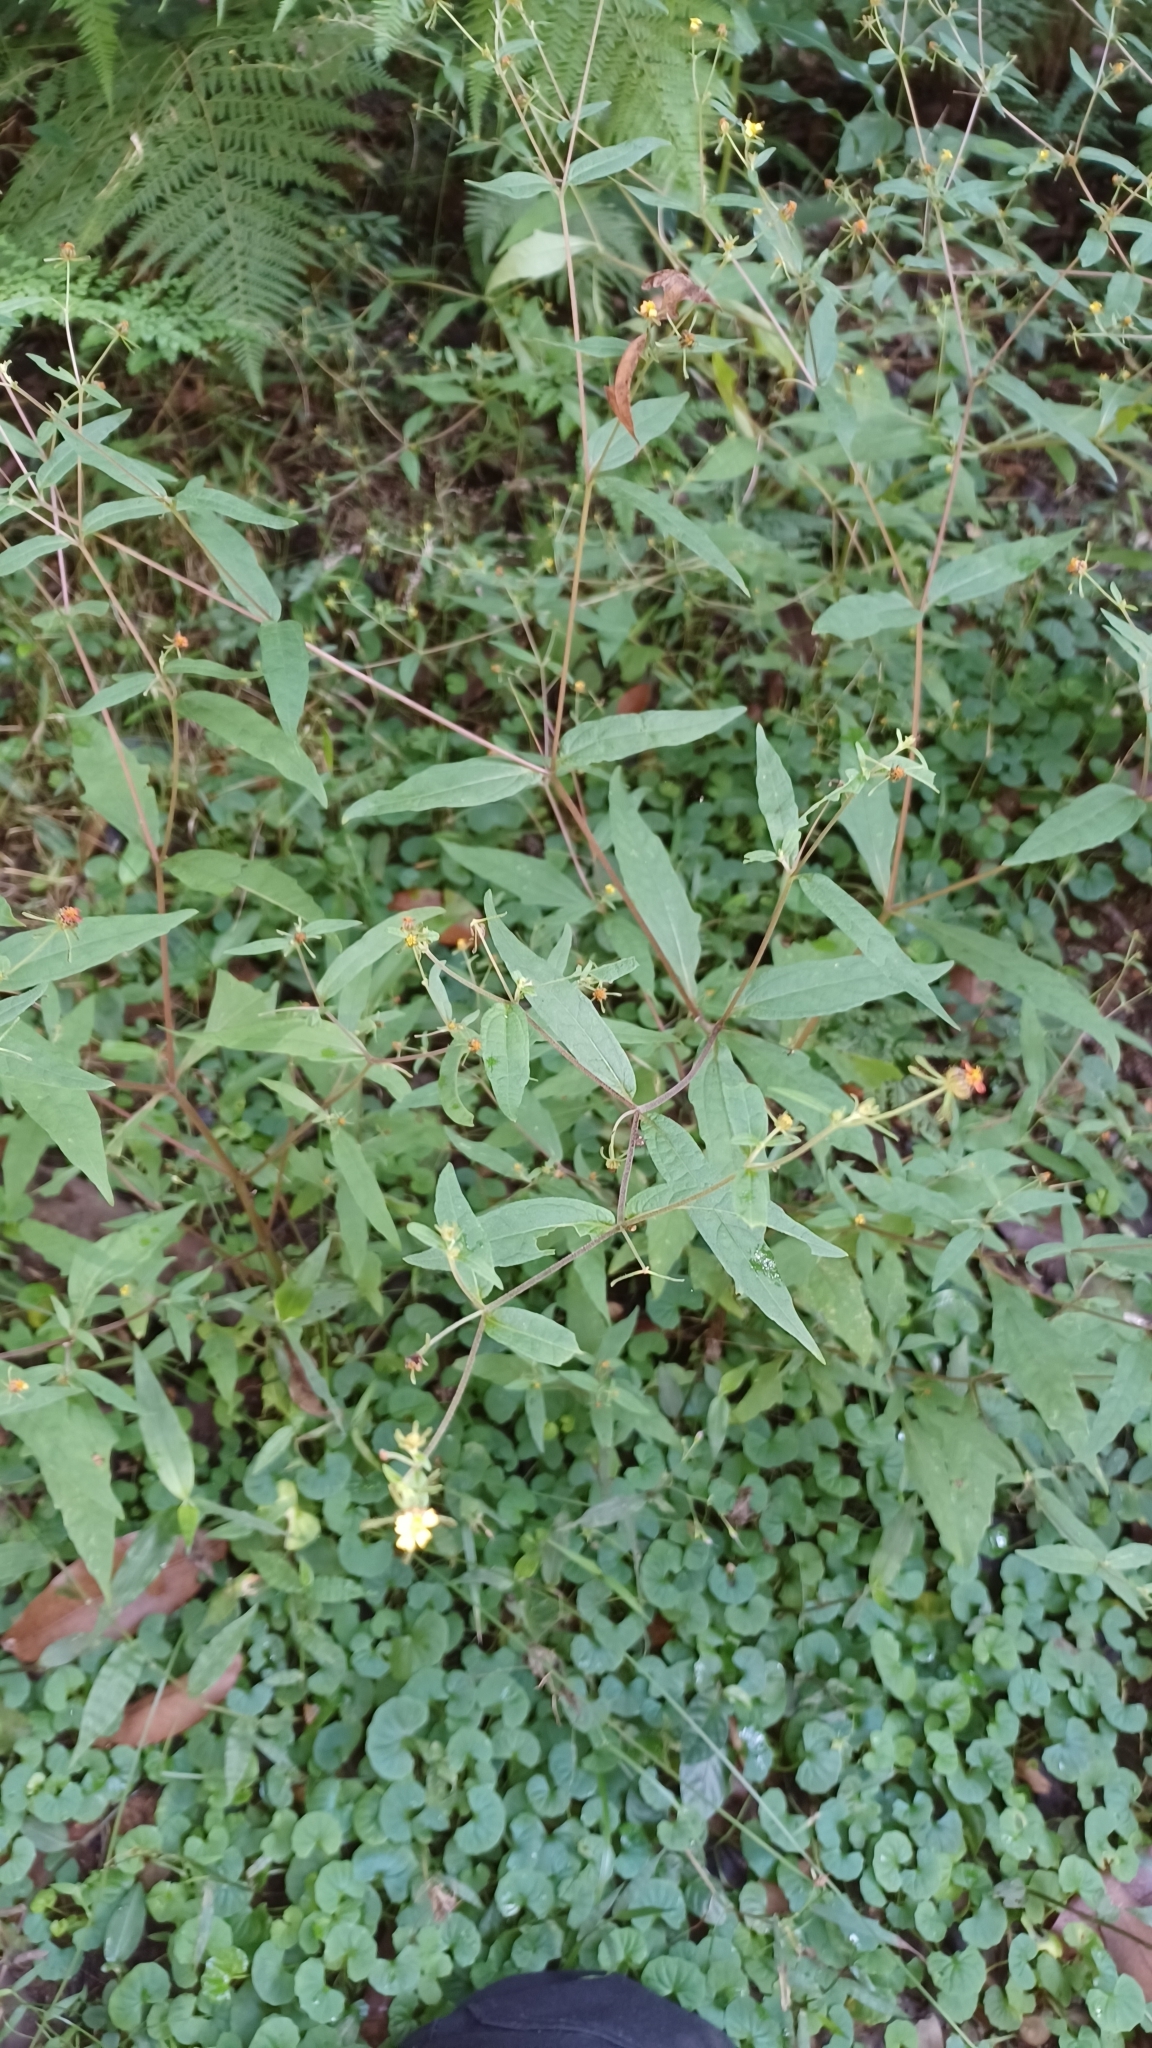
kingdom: Plantae
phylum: Tracheophyta
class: Magnoliopsida
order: Asterales
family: Asteraceae
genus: Sigesbeckia
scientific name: Sigesbeckia orientalis
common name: Eastern st paul's-wort
